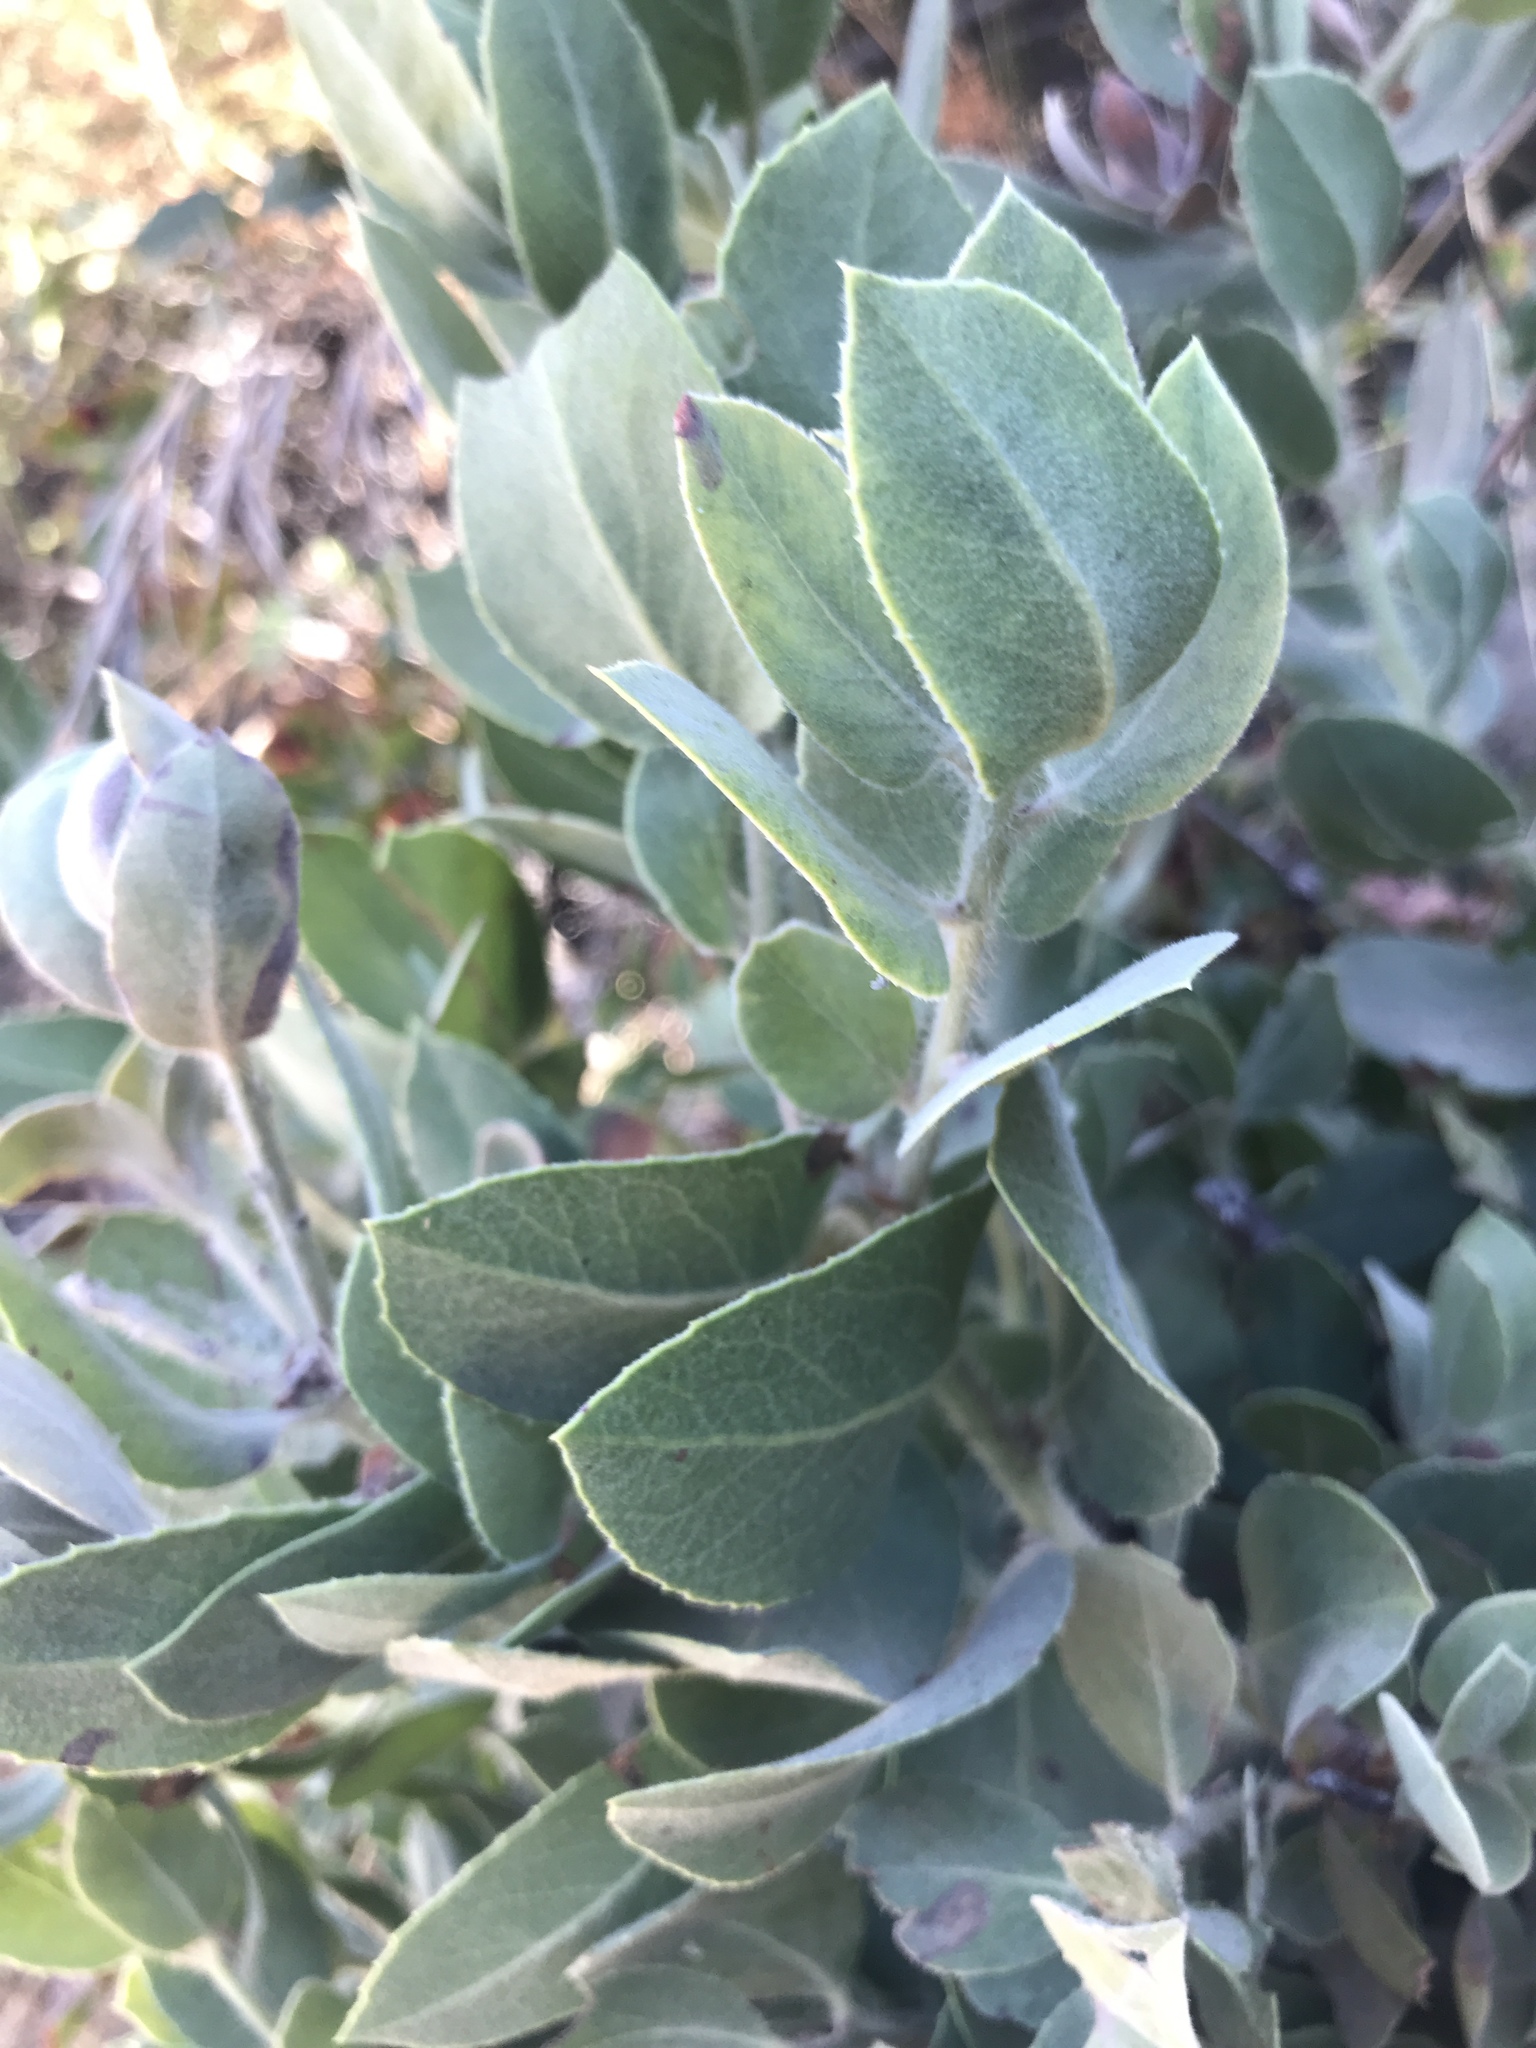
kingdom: Plantae
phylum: Tracheophyta
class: Magnoliopsida
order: Ericales
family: Ericaceae
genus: Arctostaphylos
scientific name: Arctostaphylos crustacea
